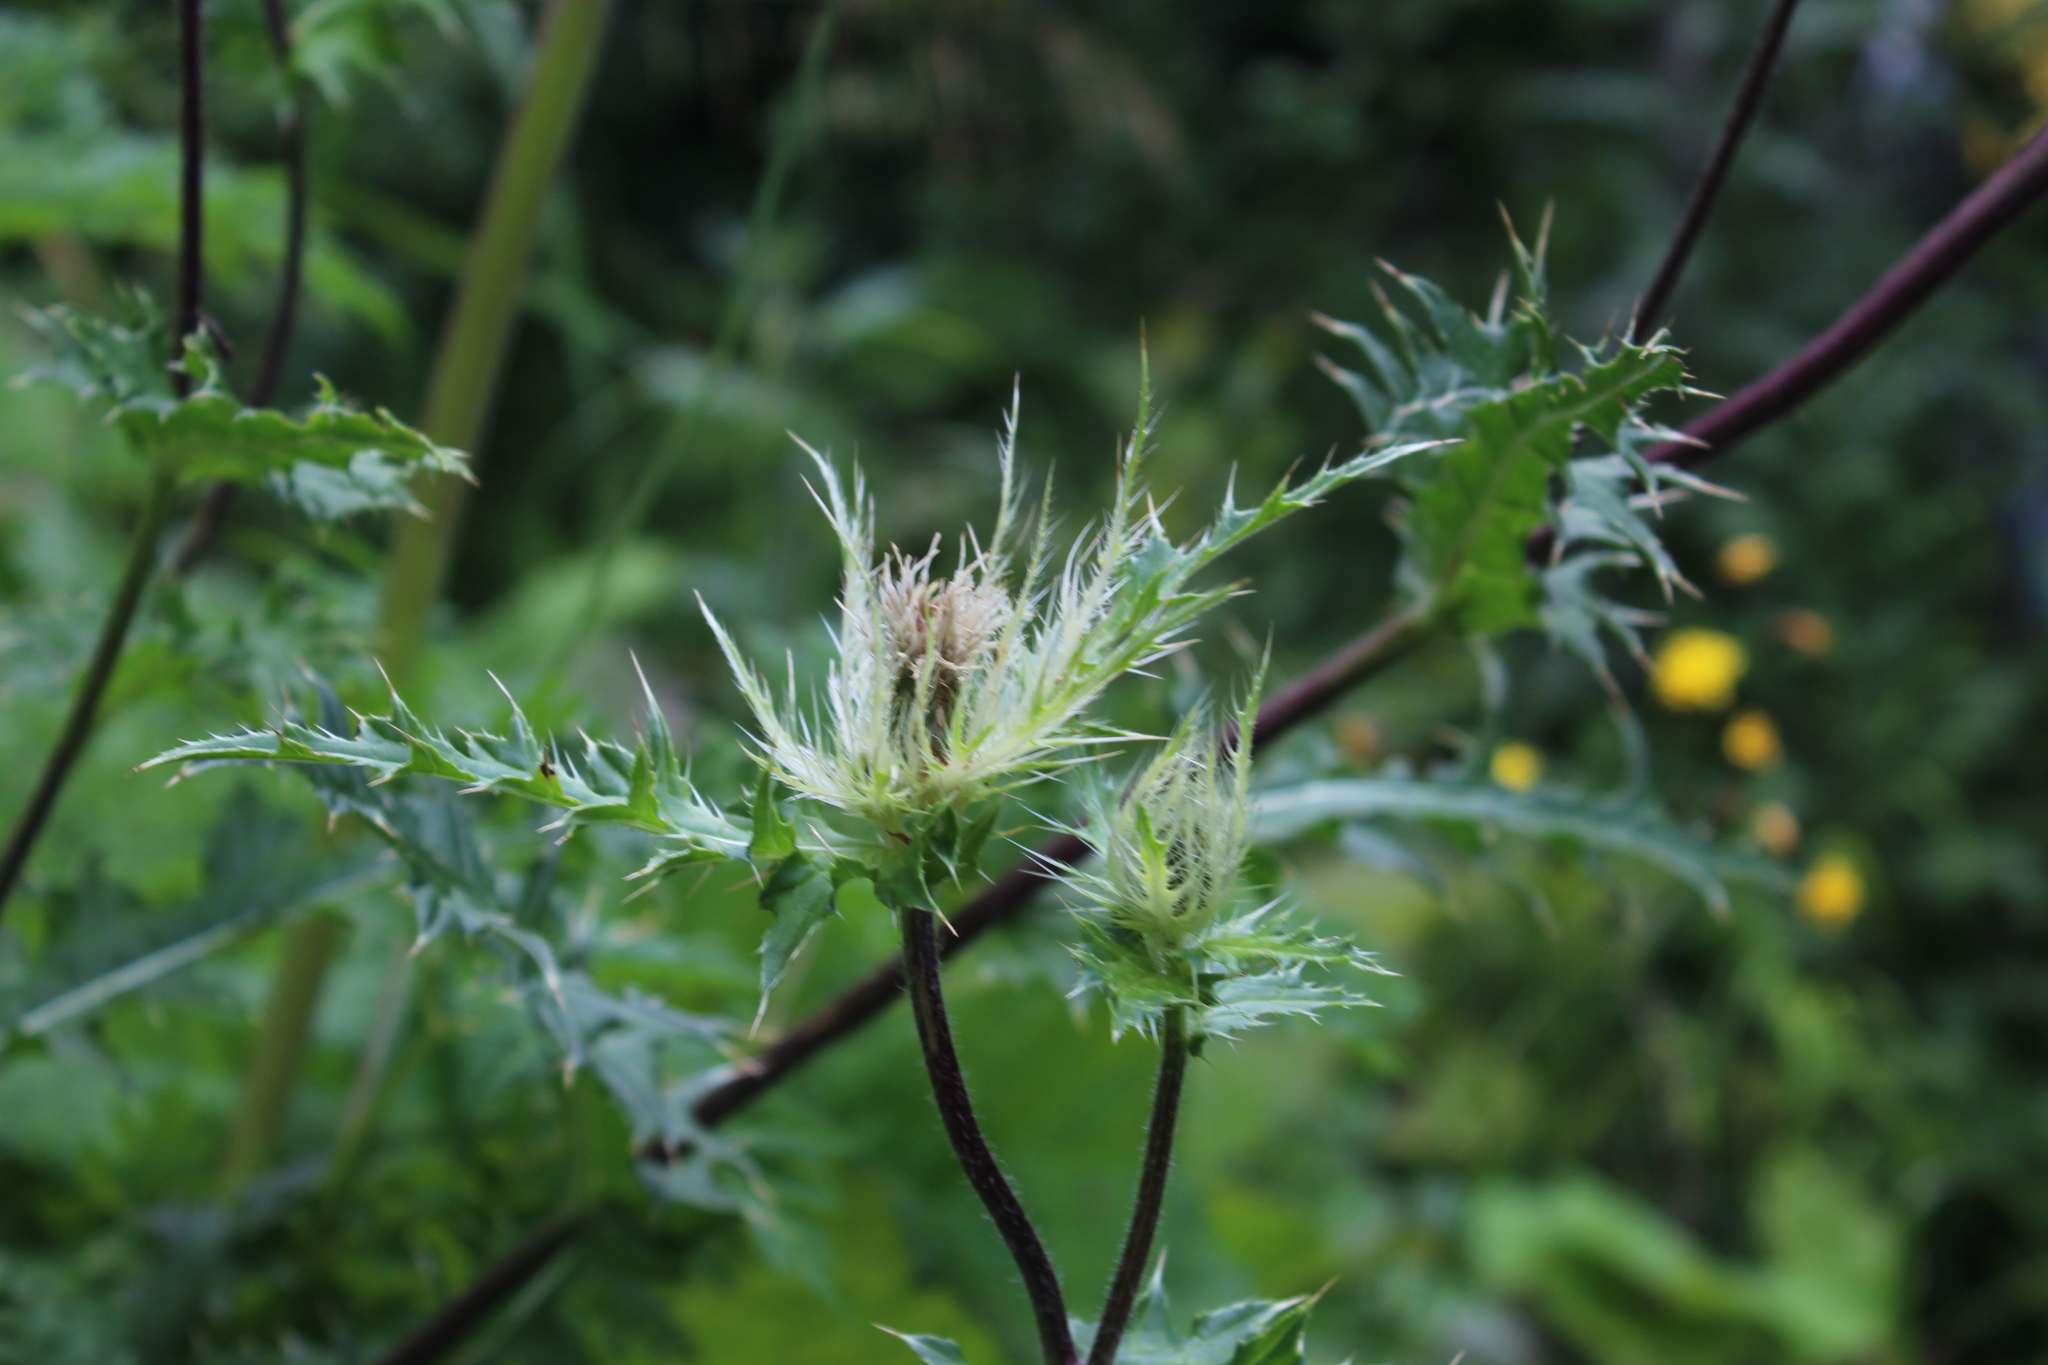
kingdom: Plantae
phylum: Tracheophyta
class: Magnoliopsida
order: Asterales
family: Asteraceae
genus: Cirsium
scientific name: Cirsium obvallatum
